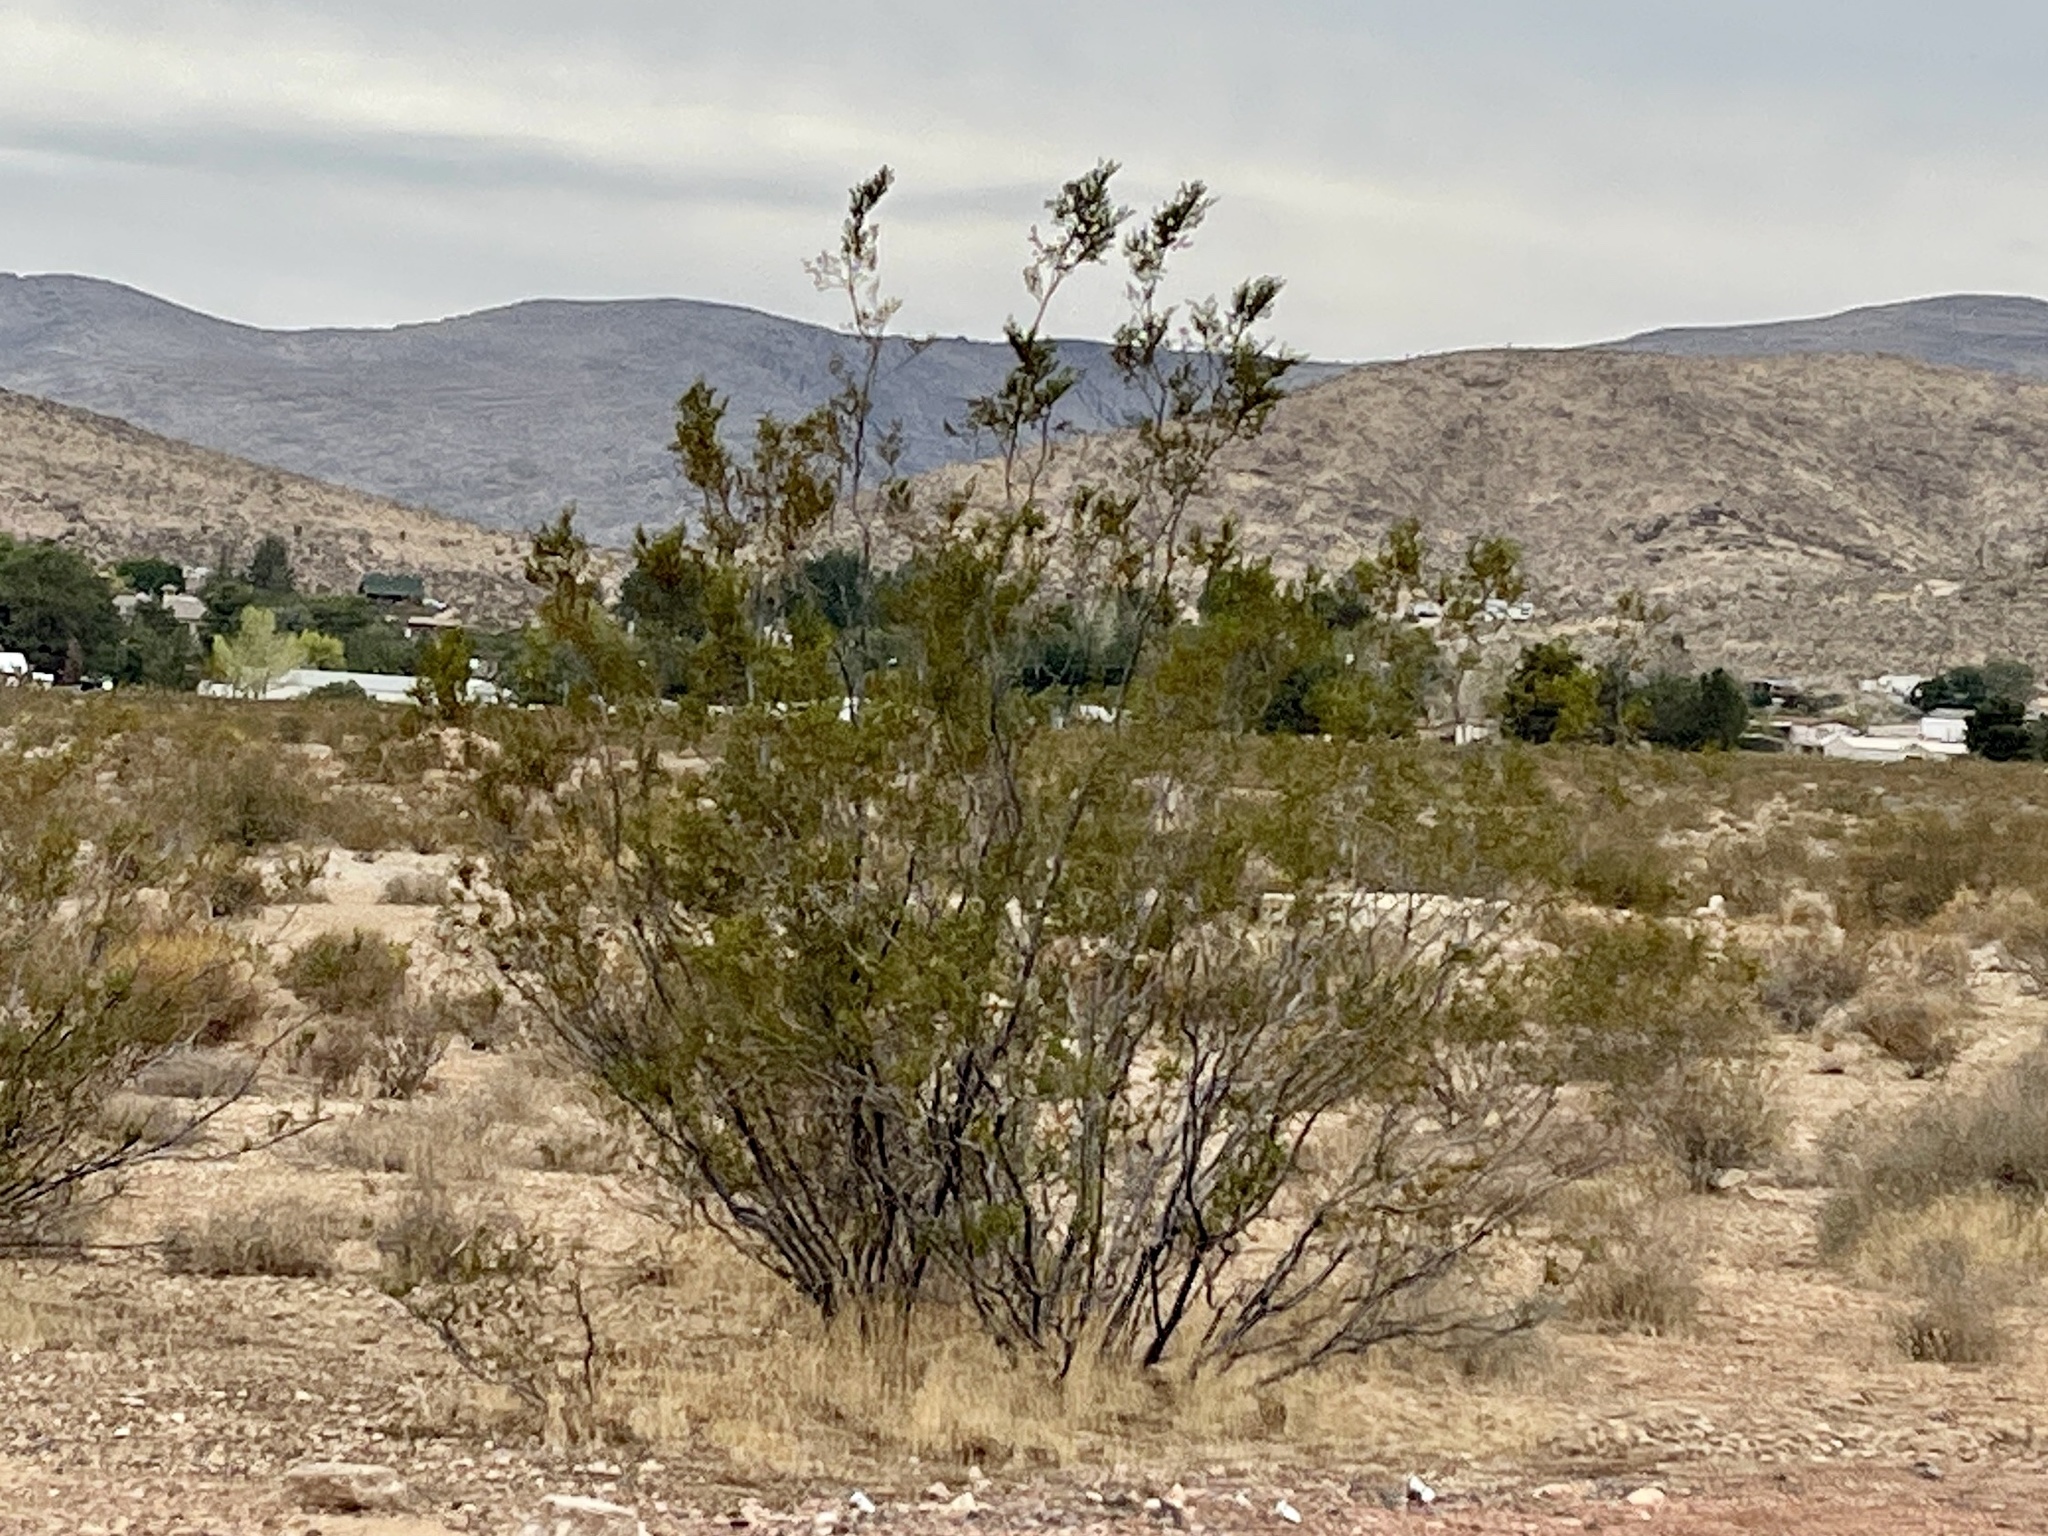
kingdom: Plantae
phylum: Tracheophyta
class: Magnoliopsida
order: Zygophyllales
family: Zygophyllaceae
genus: Larrea
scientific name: Larrea tridentata
